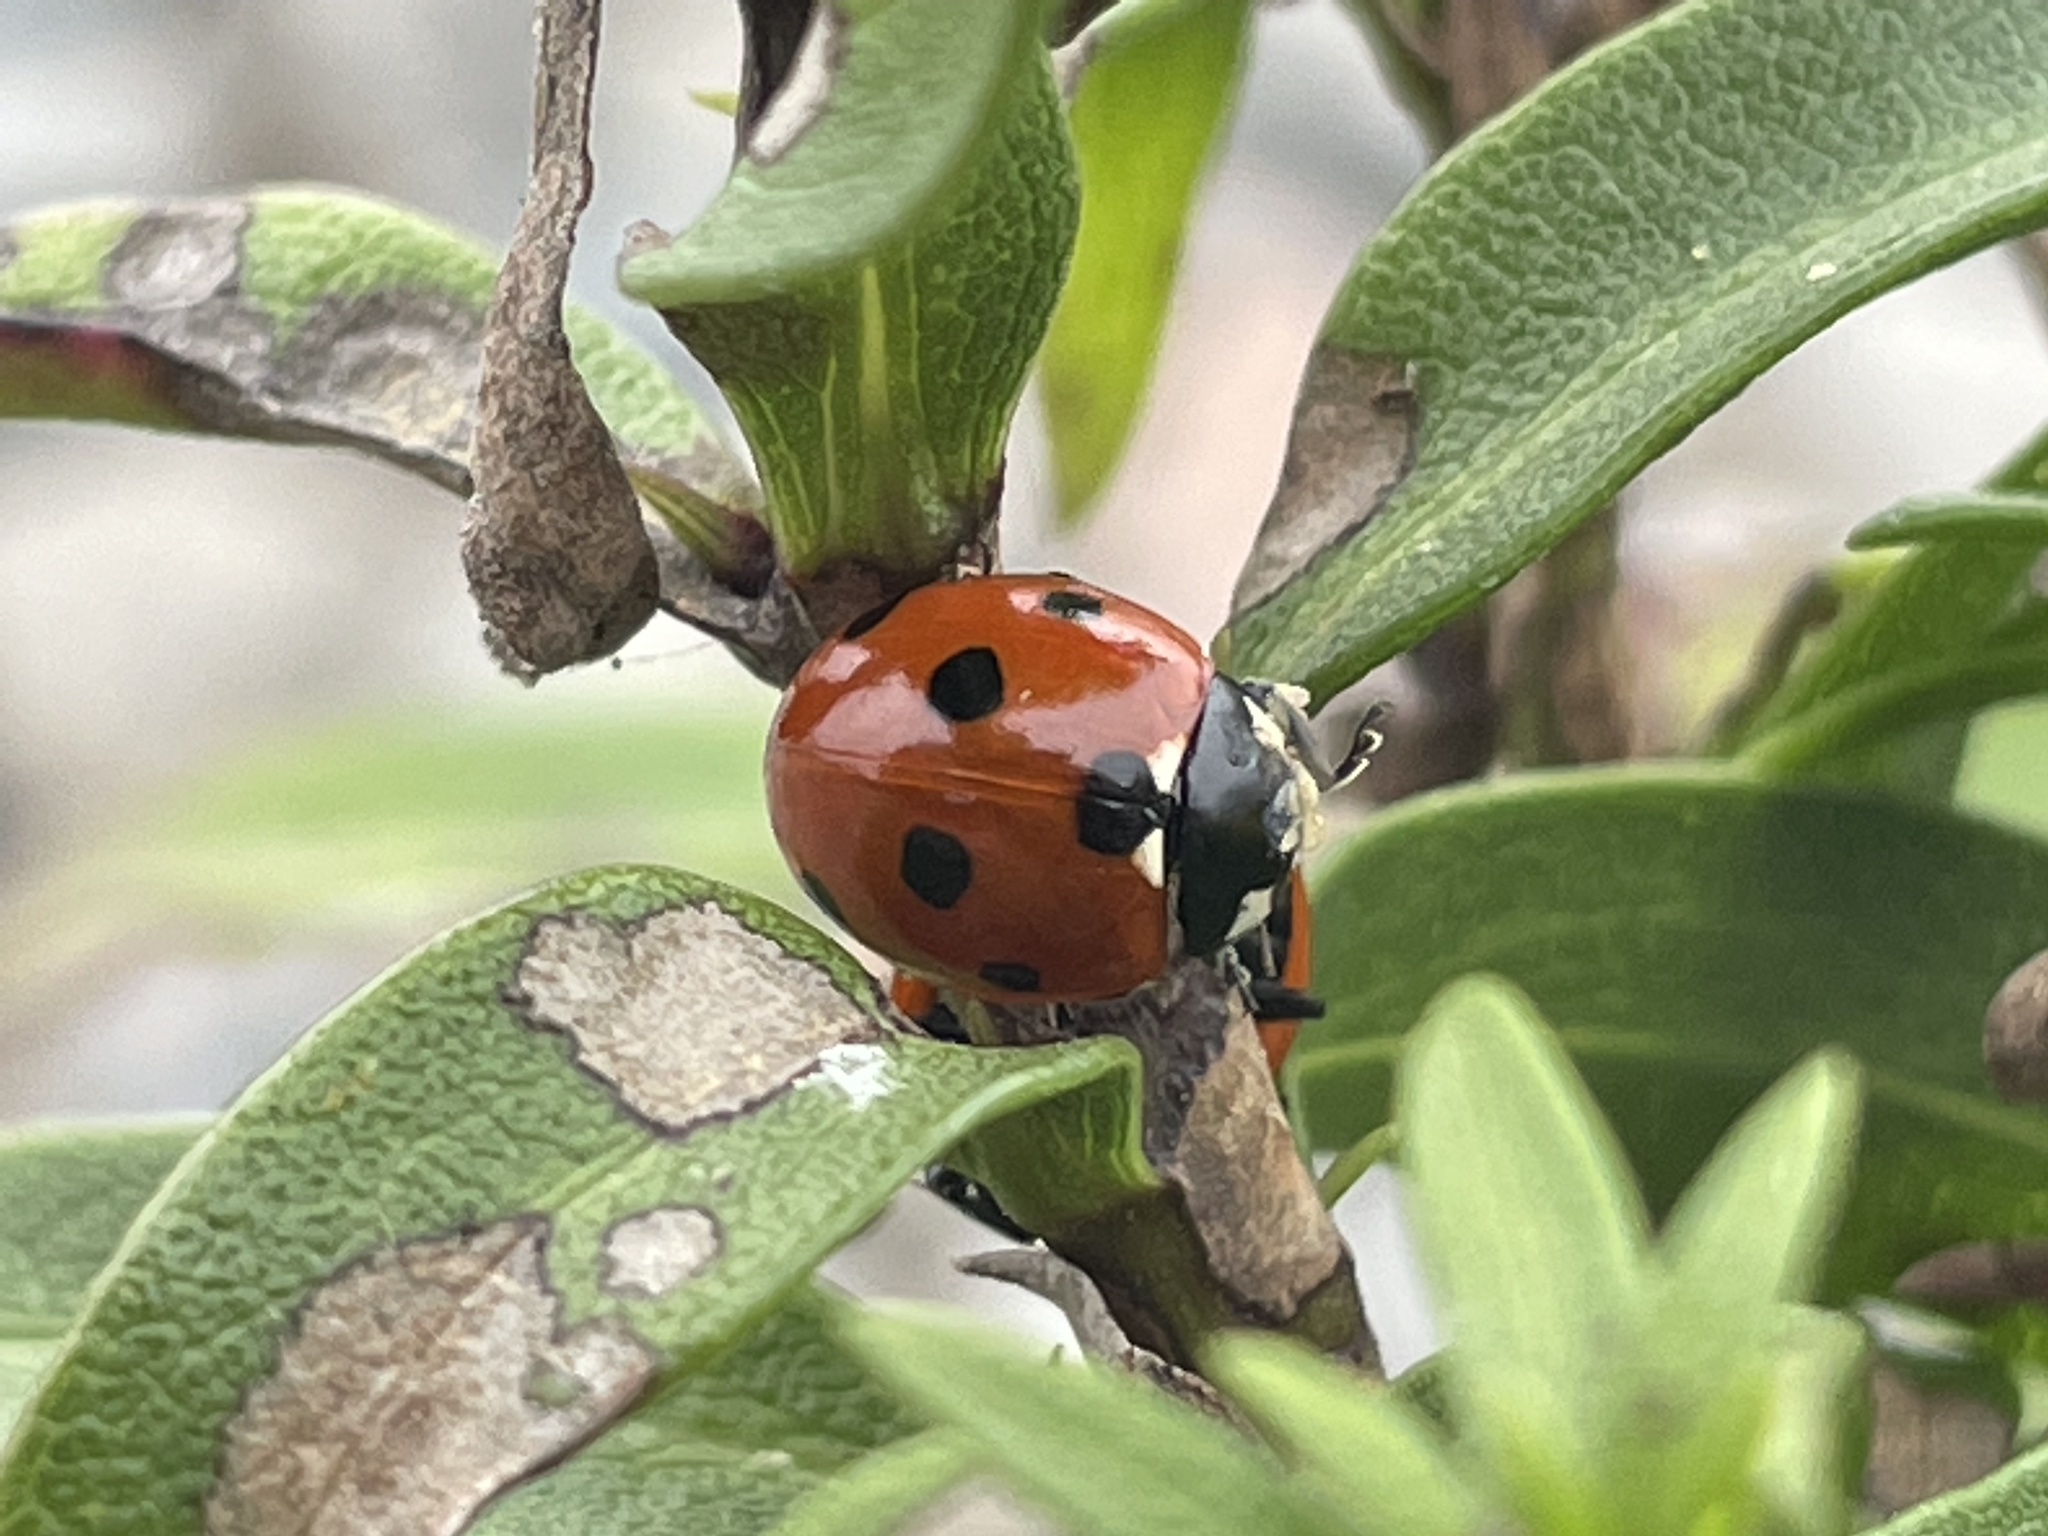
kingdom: Animalia
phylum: Arthropoda
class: Insecta
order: Coleoptera
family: Coccinellidae
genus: Coccinella
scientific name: Coccinella septempunctata
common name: Sevenspotted lady beetle
